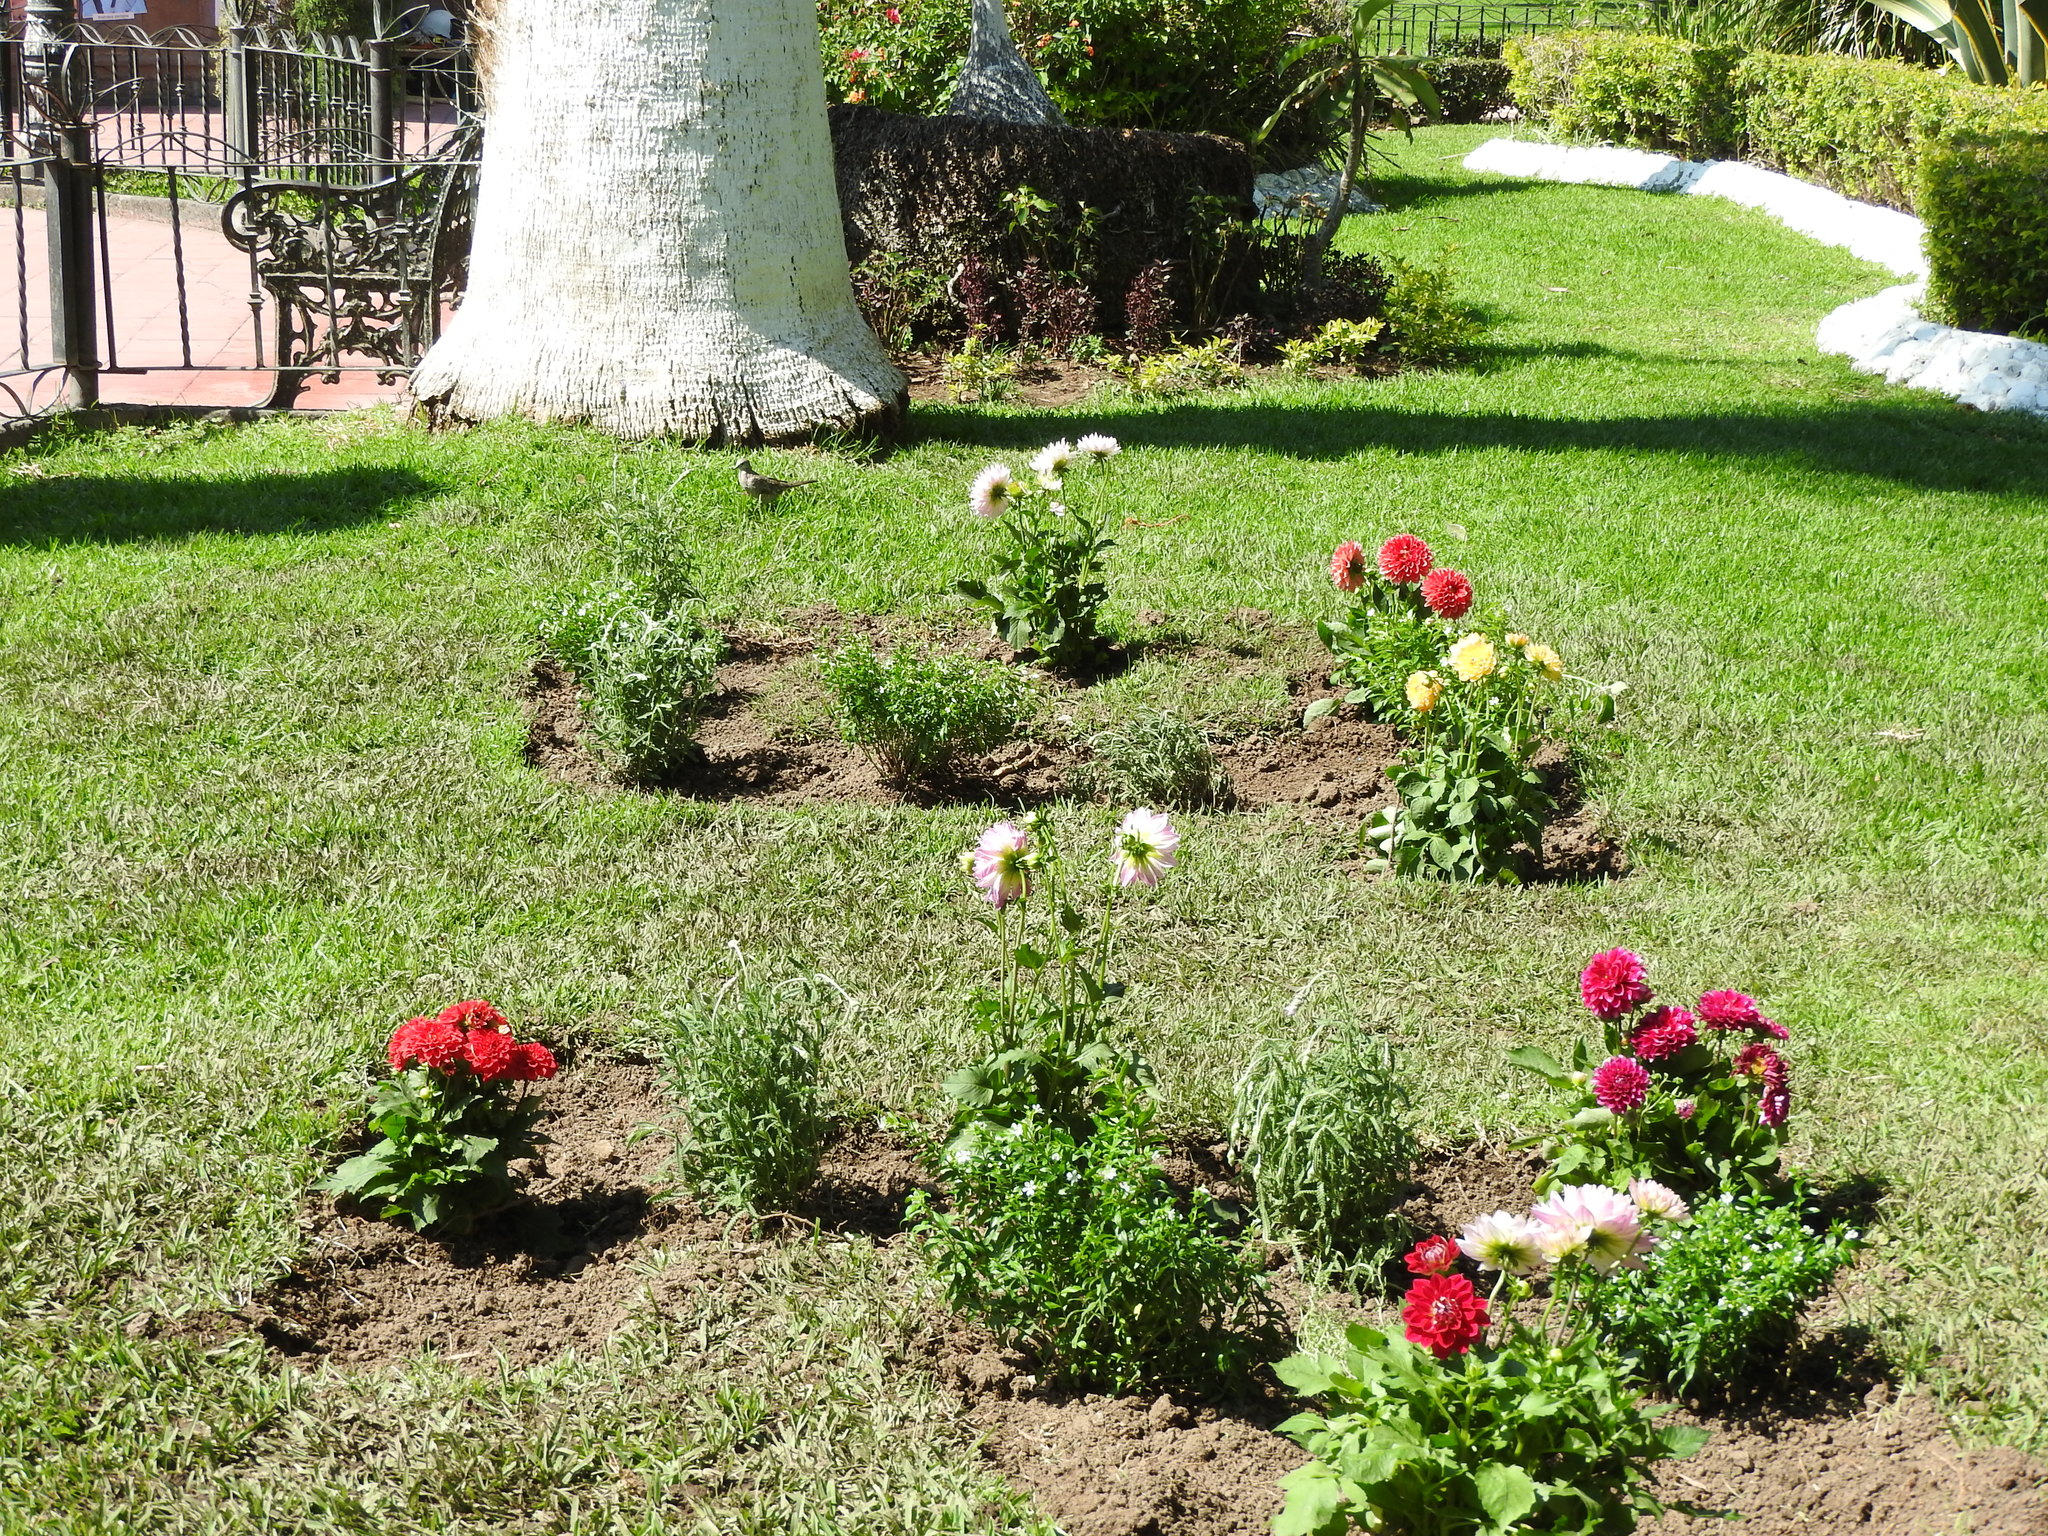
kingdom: Animalia
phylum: Chordata
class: Aves
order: Columbiformes
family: Columbidae
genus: Columbina
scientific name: Columbina inca
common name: Inca dove
